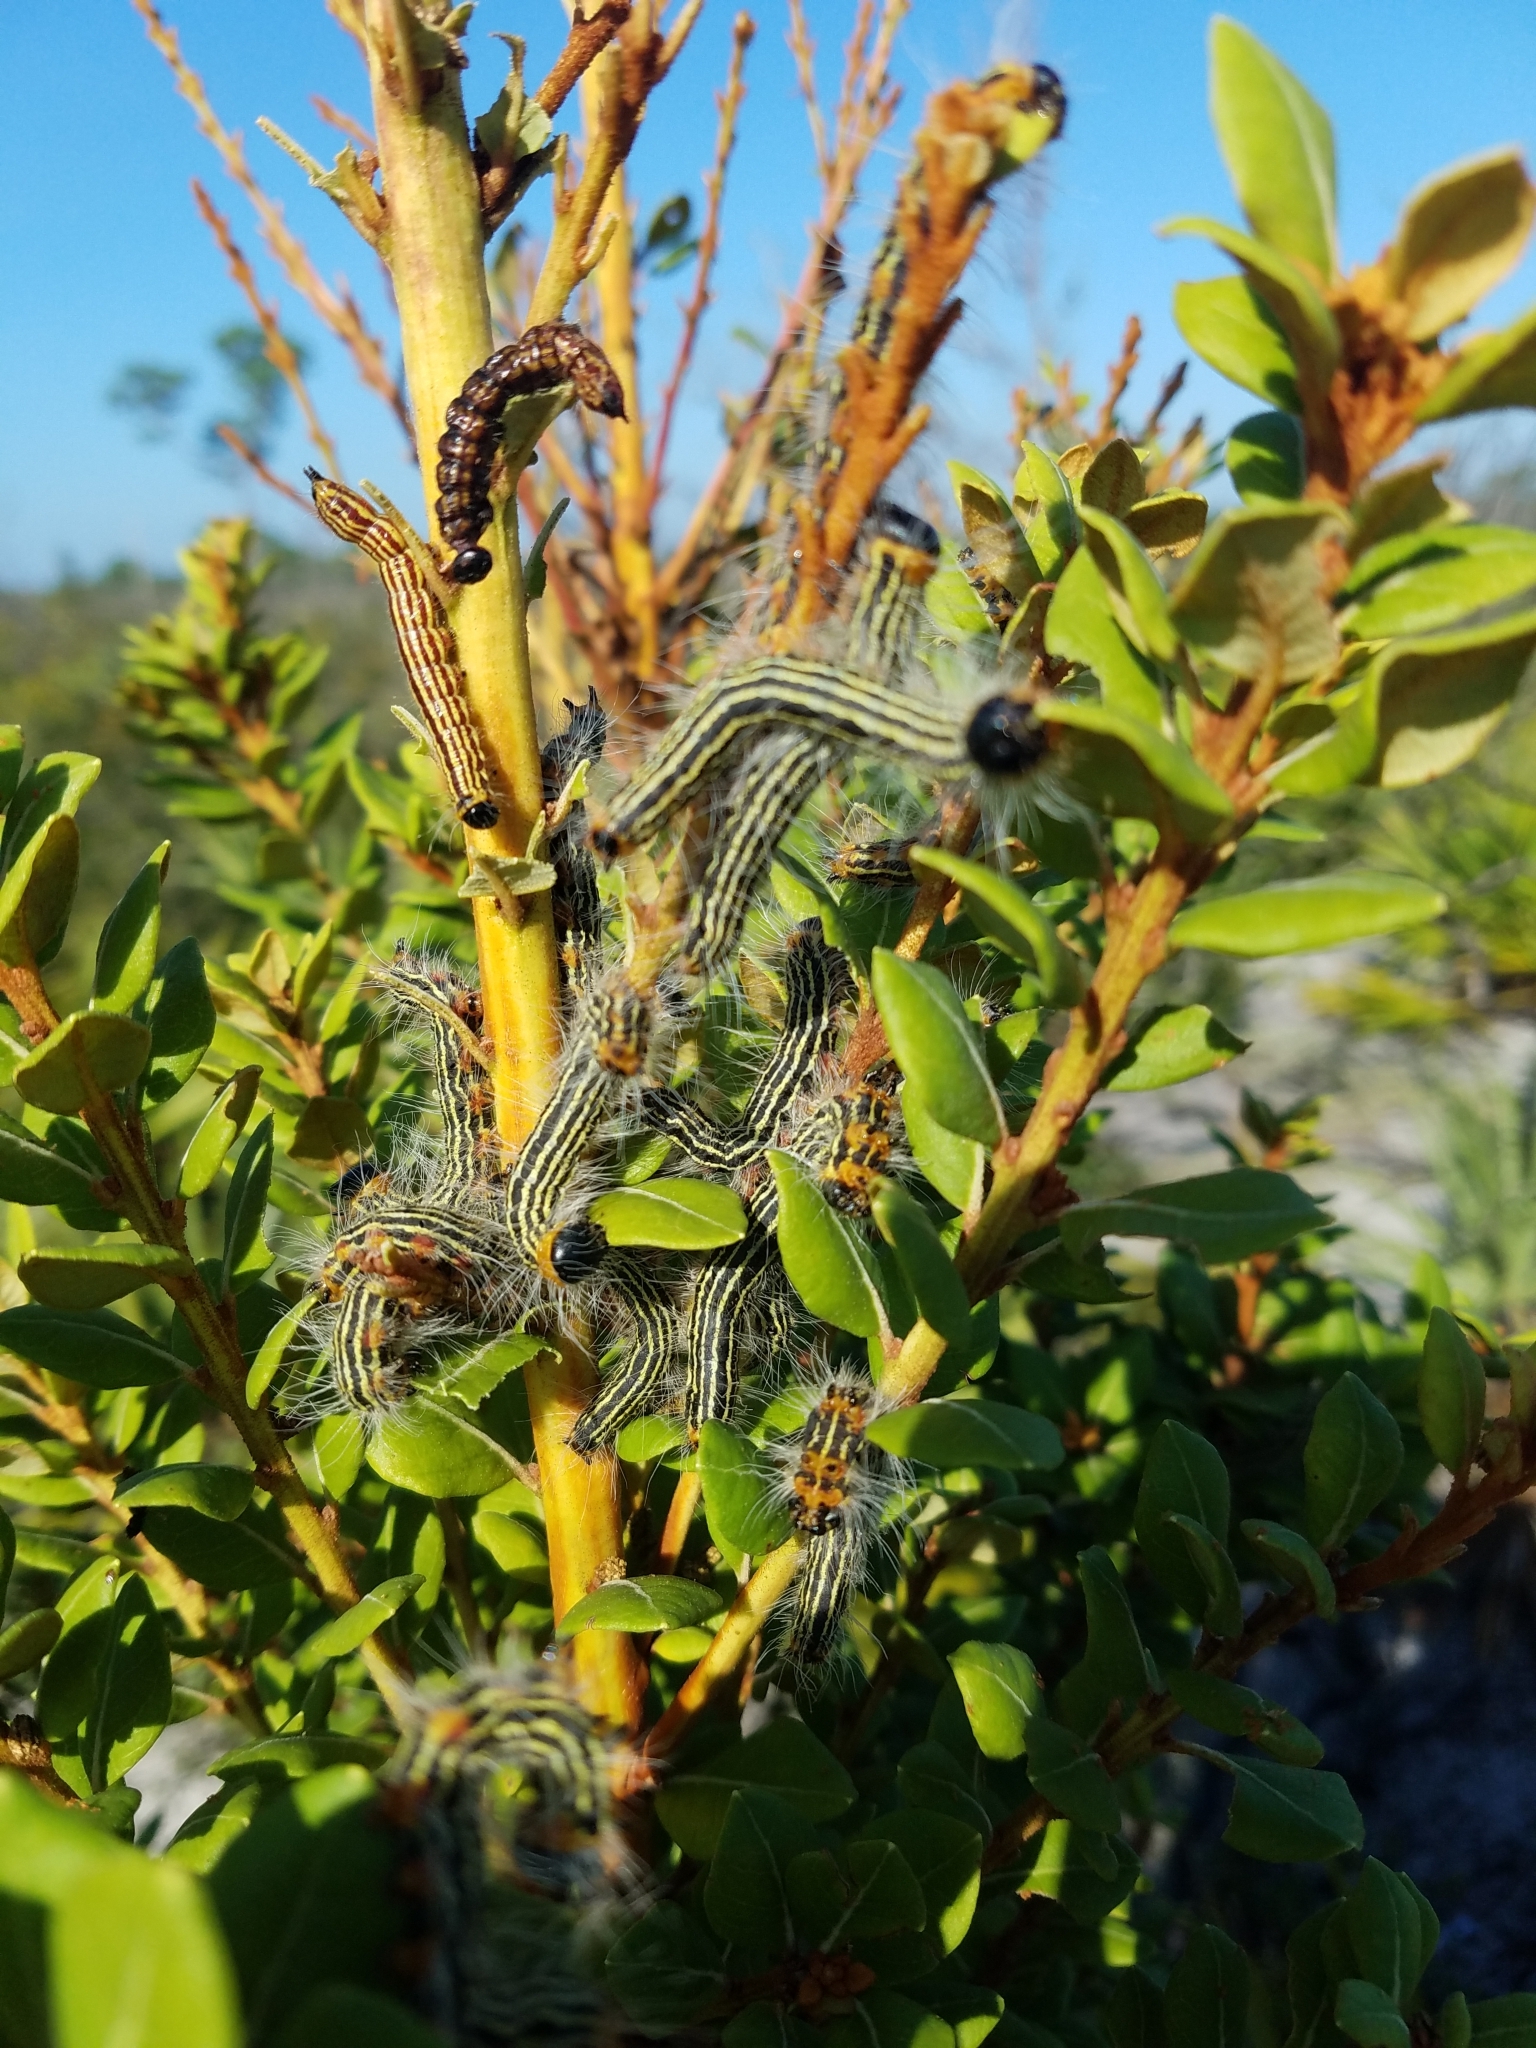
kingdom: Animalia
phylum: Arthropoda
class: Insecta
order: Lepidoptera
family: Notodontidae
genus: Datana
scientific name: Datana ministra
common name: Yellow-necked caterpillar moth
